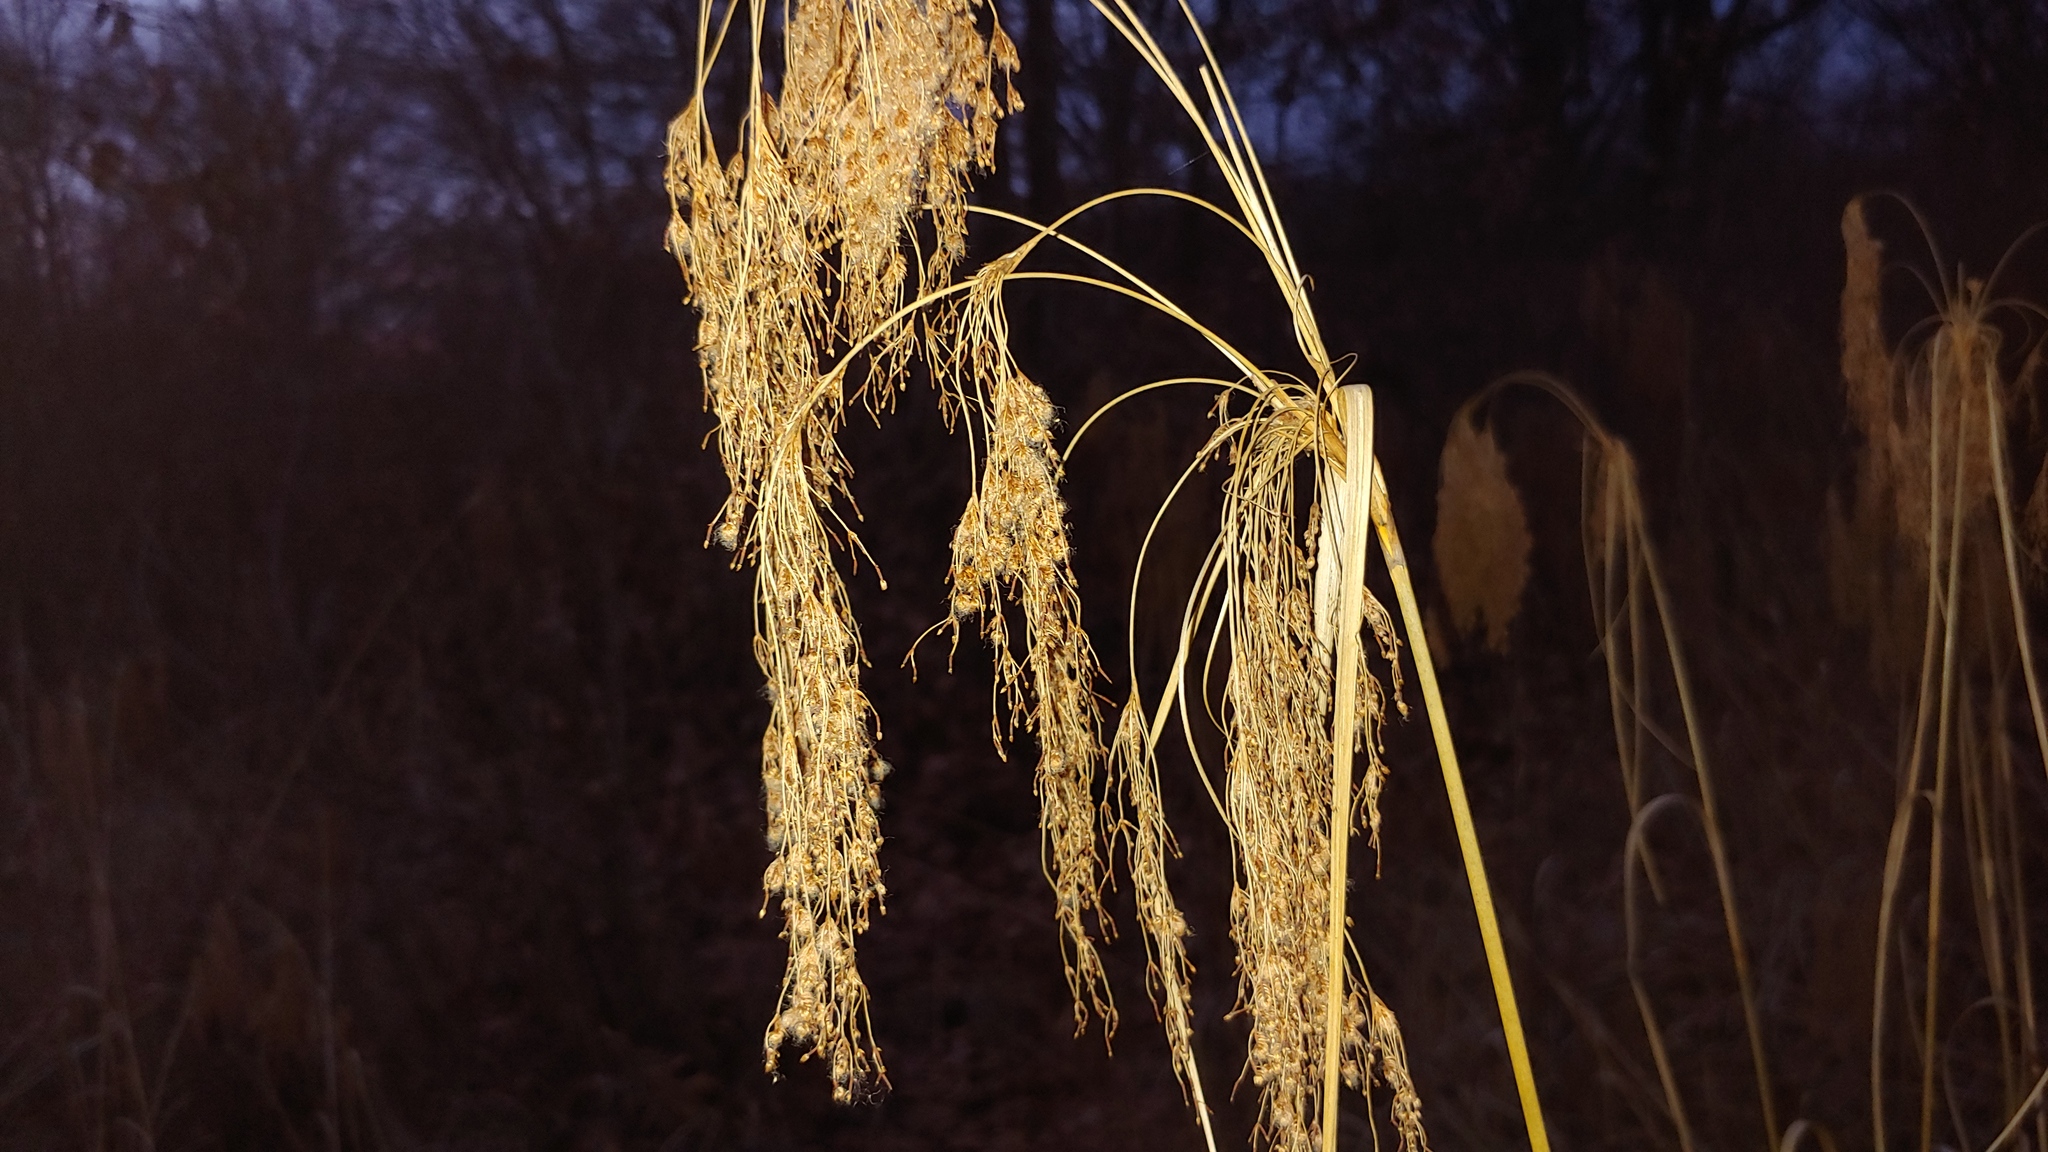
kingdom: Plantae
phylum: Tracheophyta
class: Liliopsida
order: Poales
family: Cyperaceae
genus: Scirpus
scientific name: Scirpus cyperinus
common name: Black-sheathed bulrush
